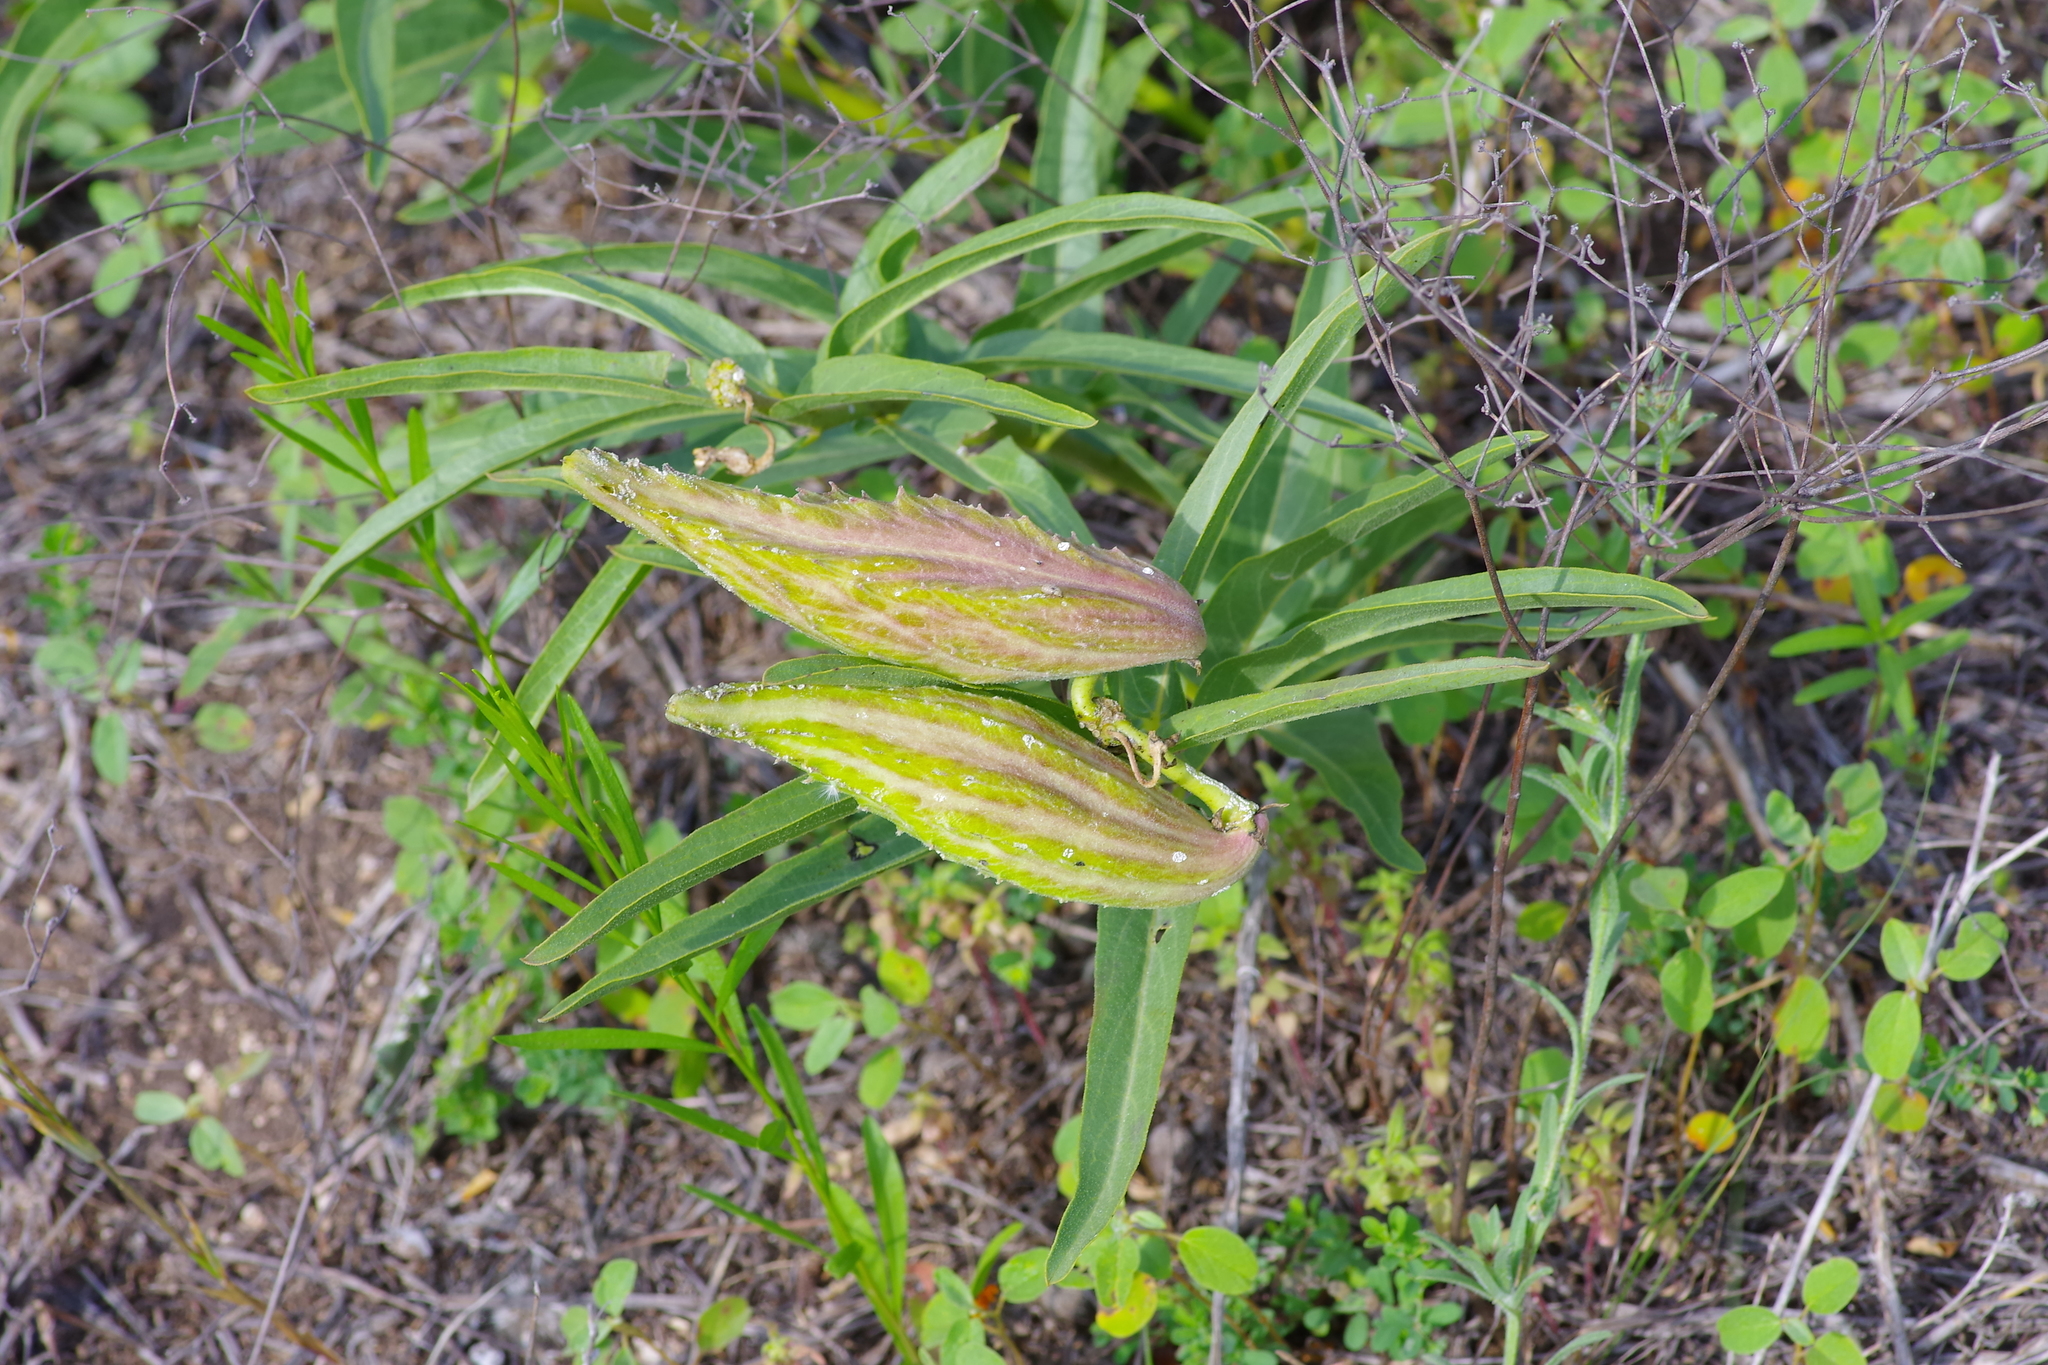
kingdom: Plantae
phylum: Tracheophyta
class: Magnoliopsida
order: Gentianales
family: Apocynaceae
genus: Asclepias
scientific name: Asclepias asperula
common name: Antelope horns
